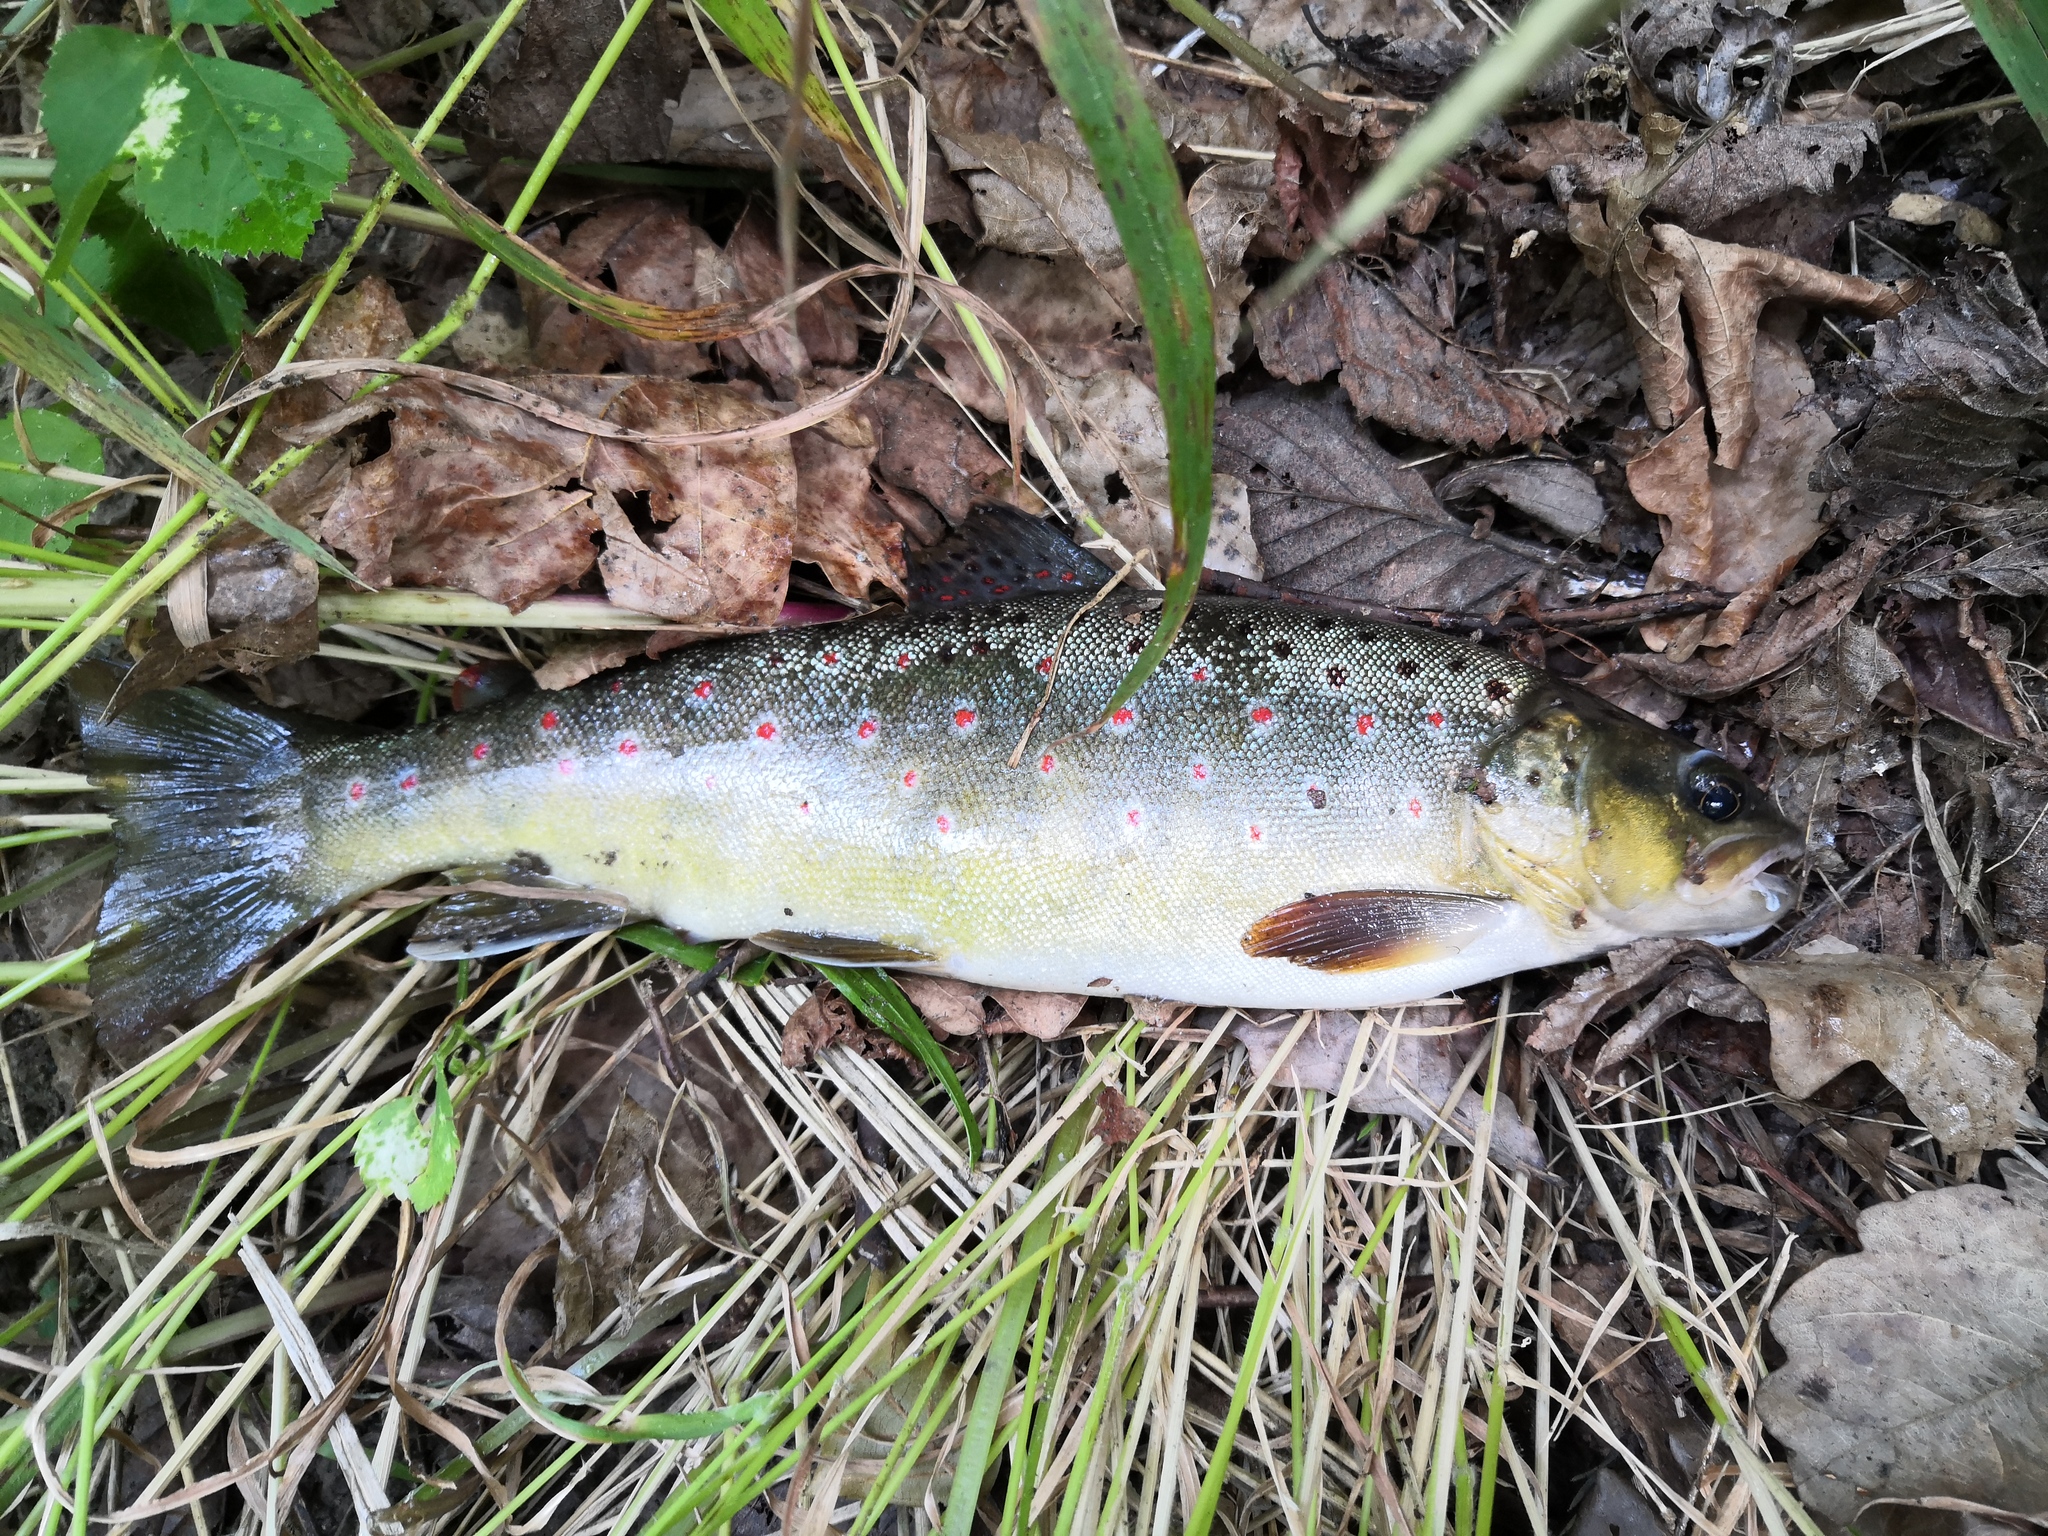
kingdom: Animalia
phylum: Chordata
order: Salmoniformes
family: Salmonidae
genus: Salmo
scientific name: Salmo trutta
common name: Brown trout
